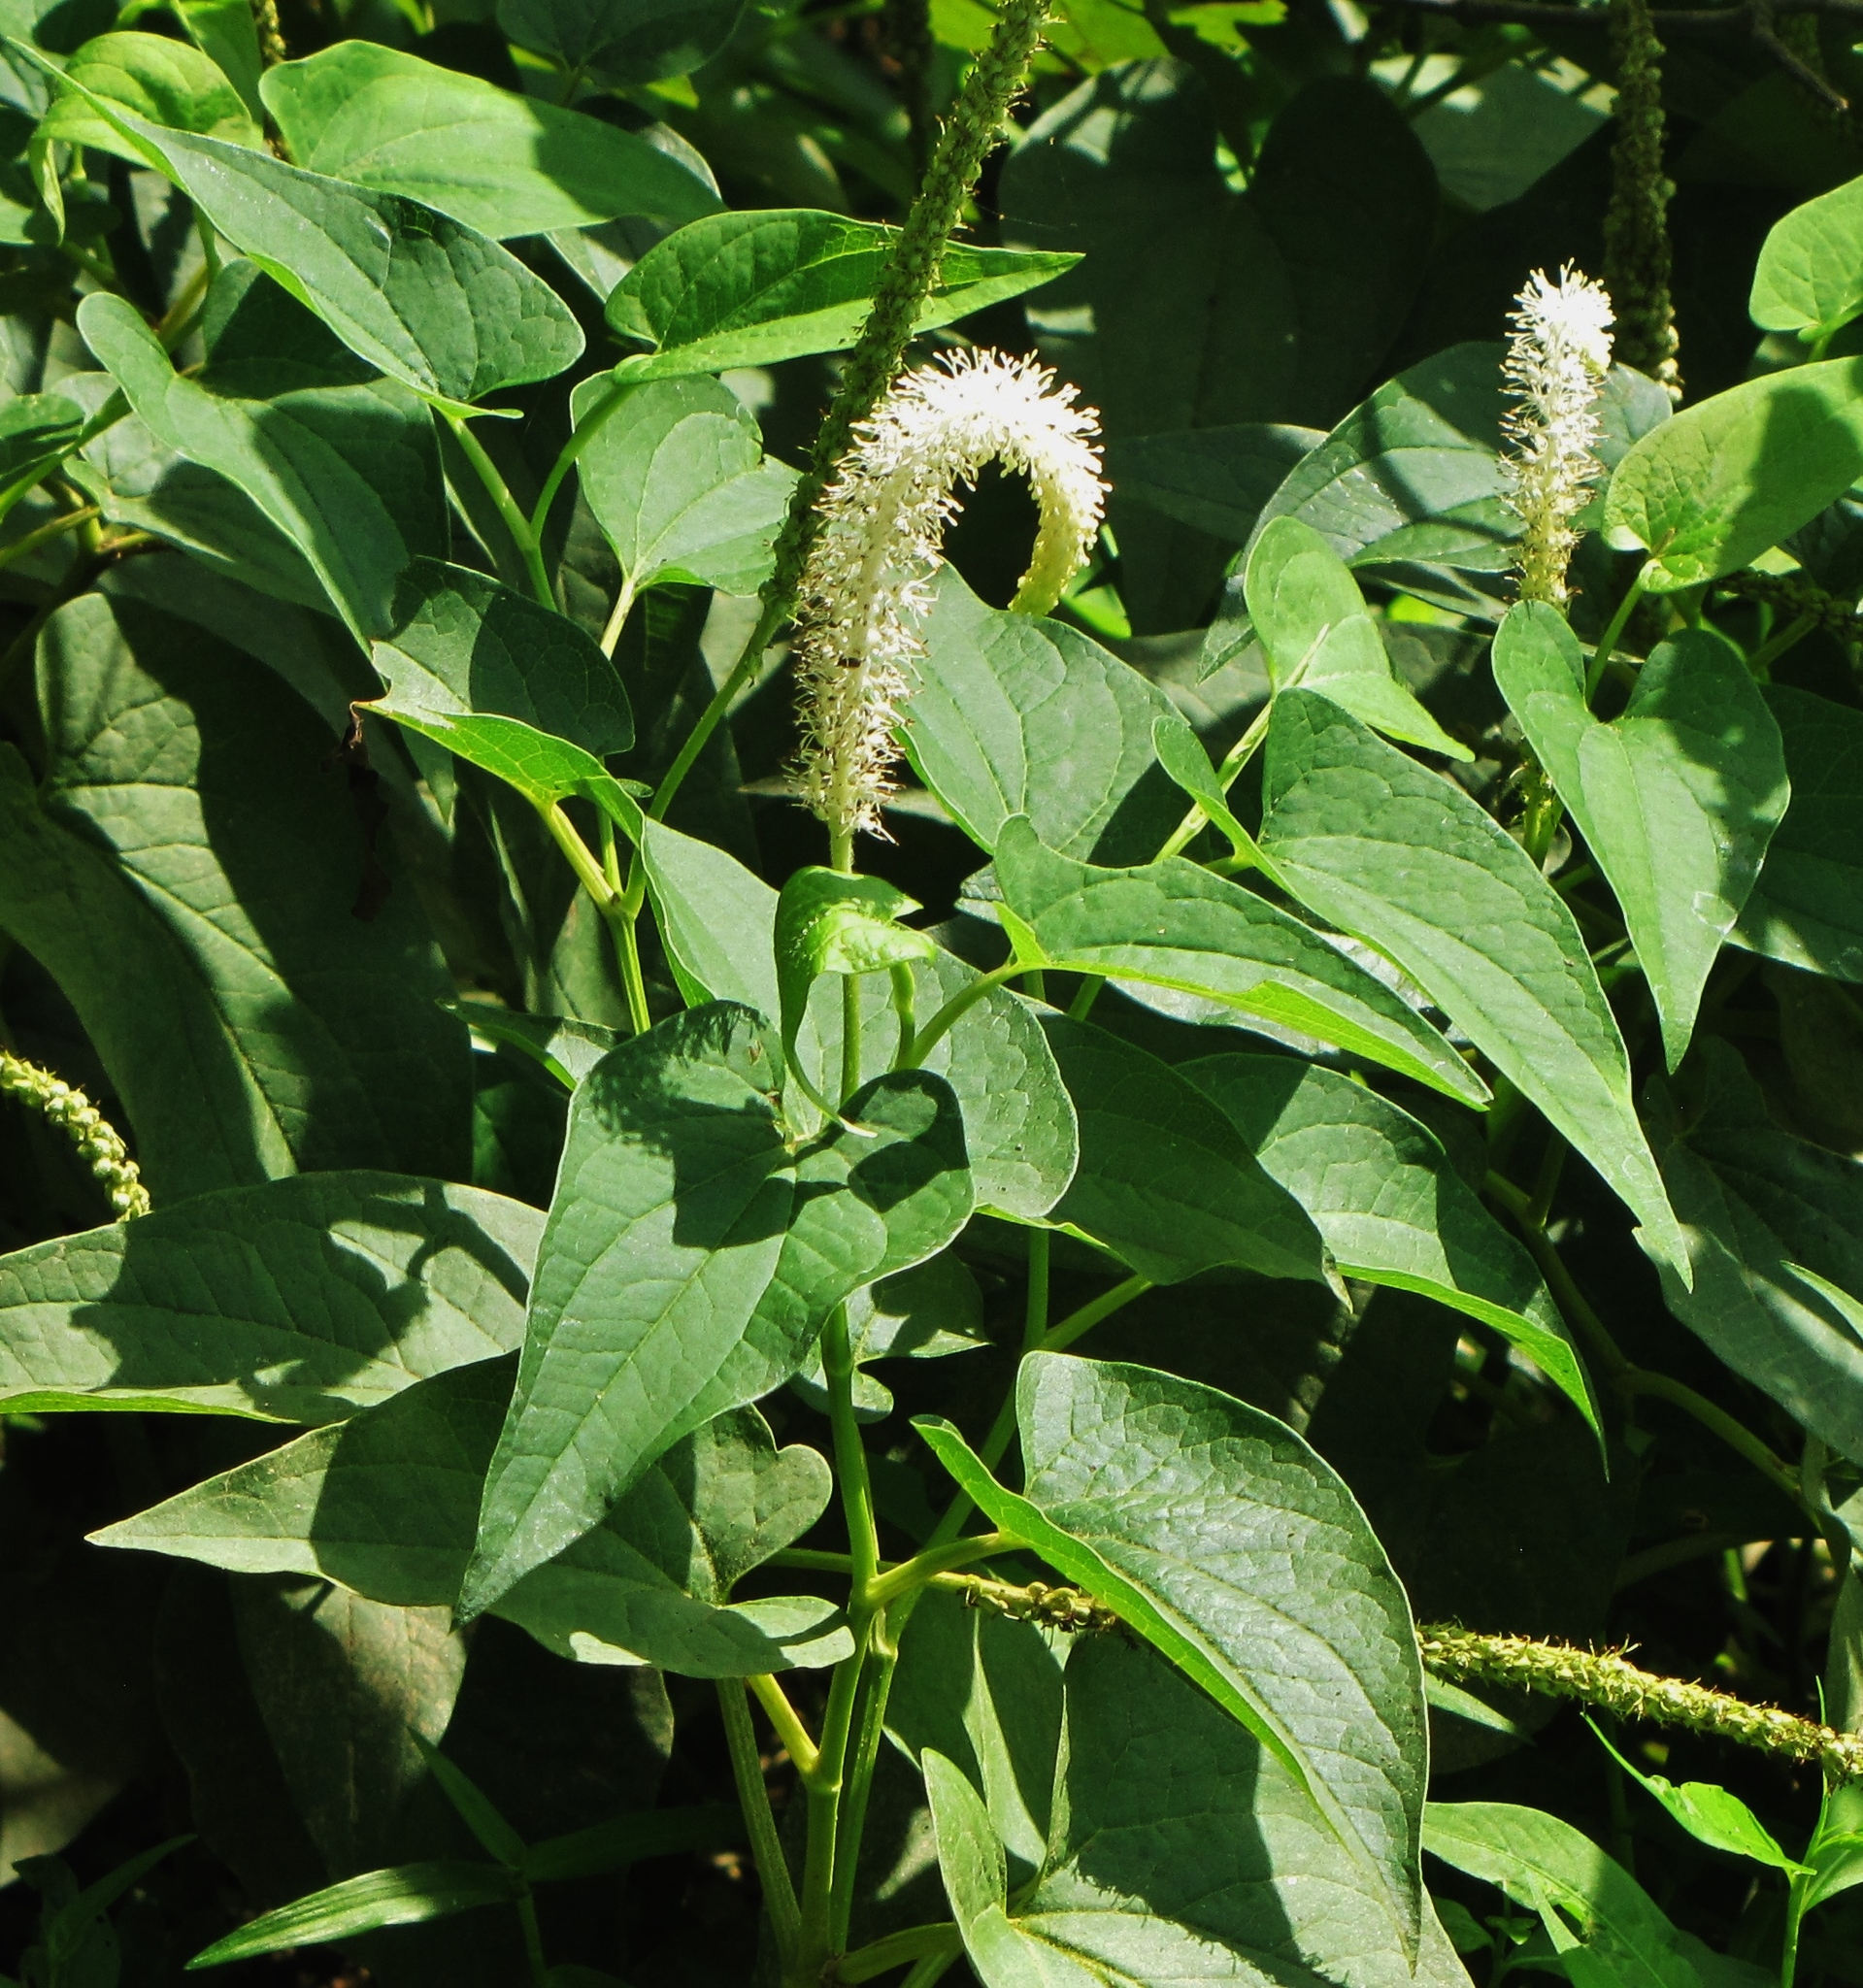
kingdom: Plantae
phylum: Tracheophyta
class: Magnoliopsida
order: Piperales
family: Saururaceae
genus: Saururus
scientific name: Saururus cernuus
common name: Lizard's-tail
